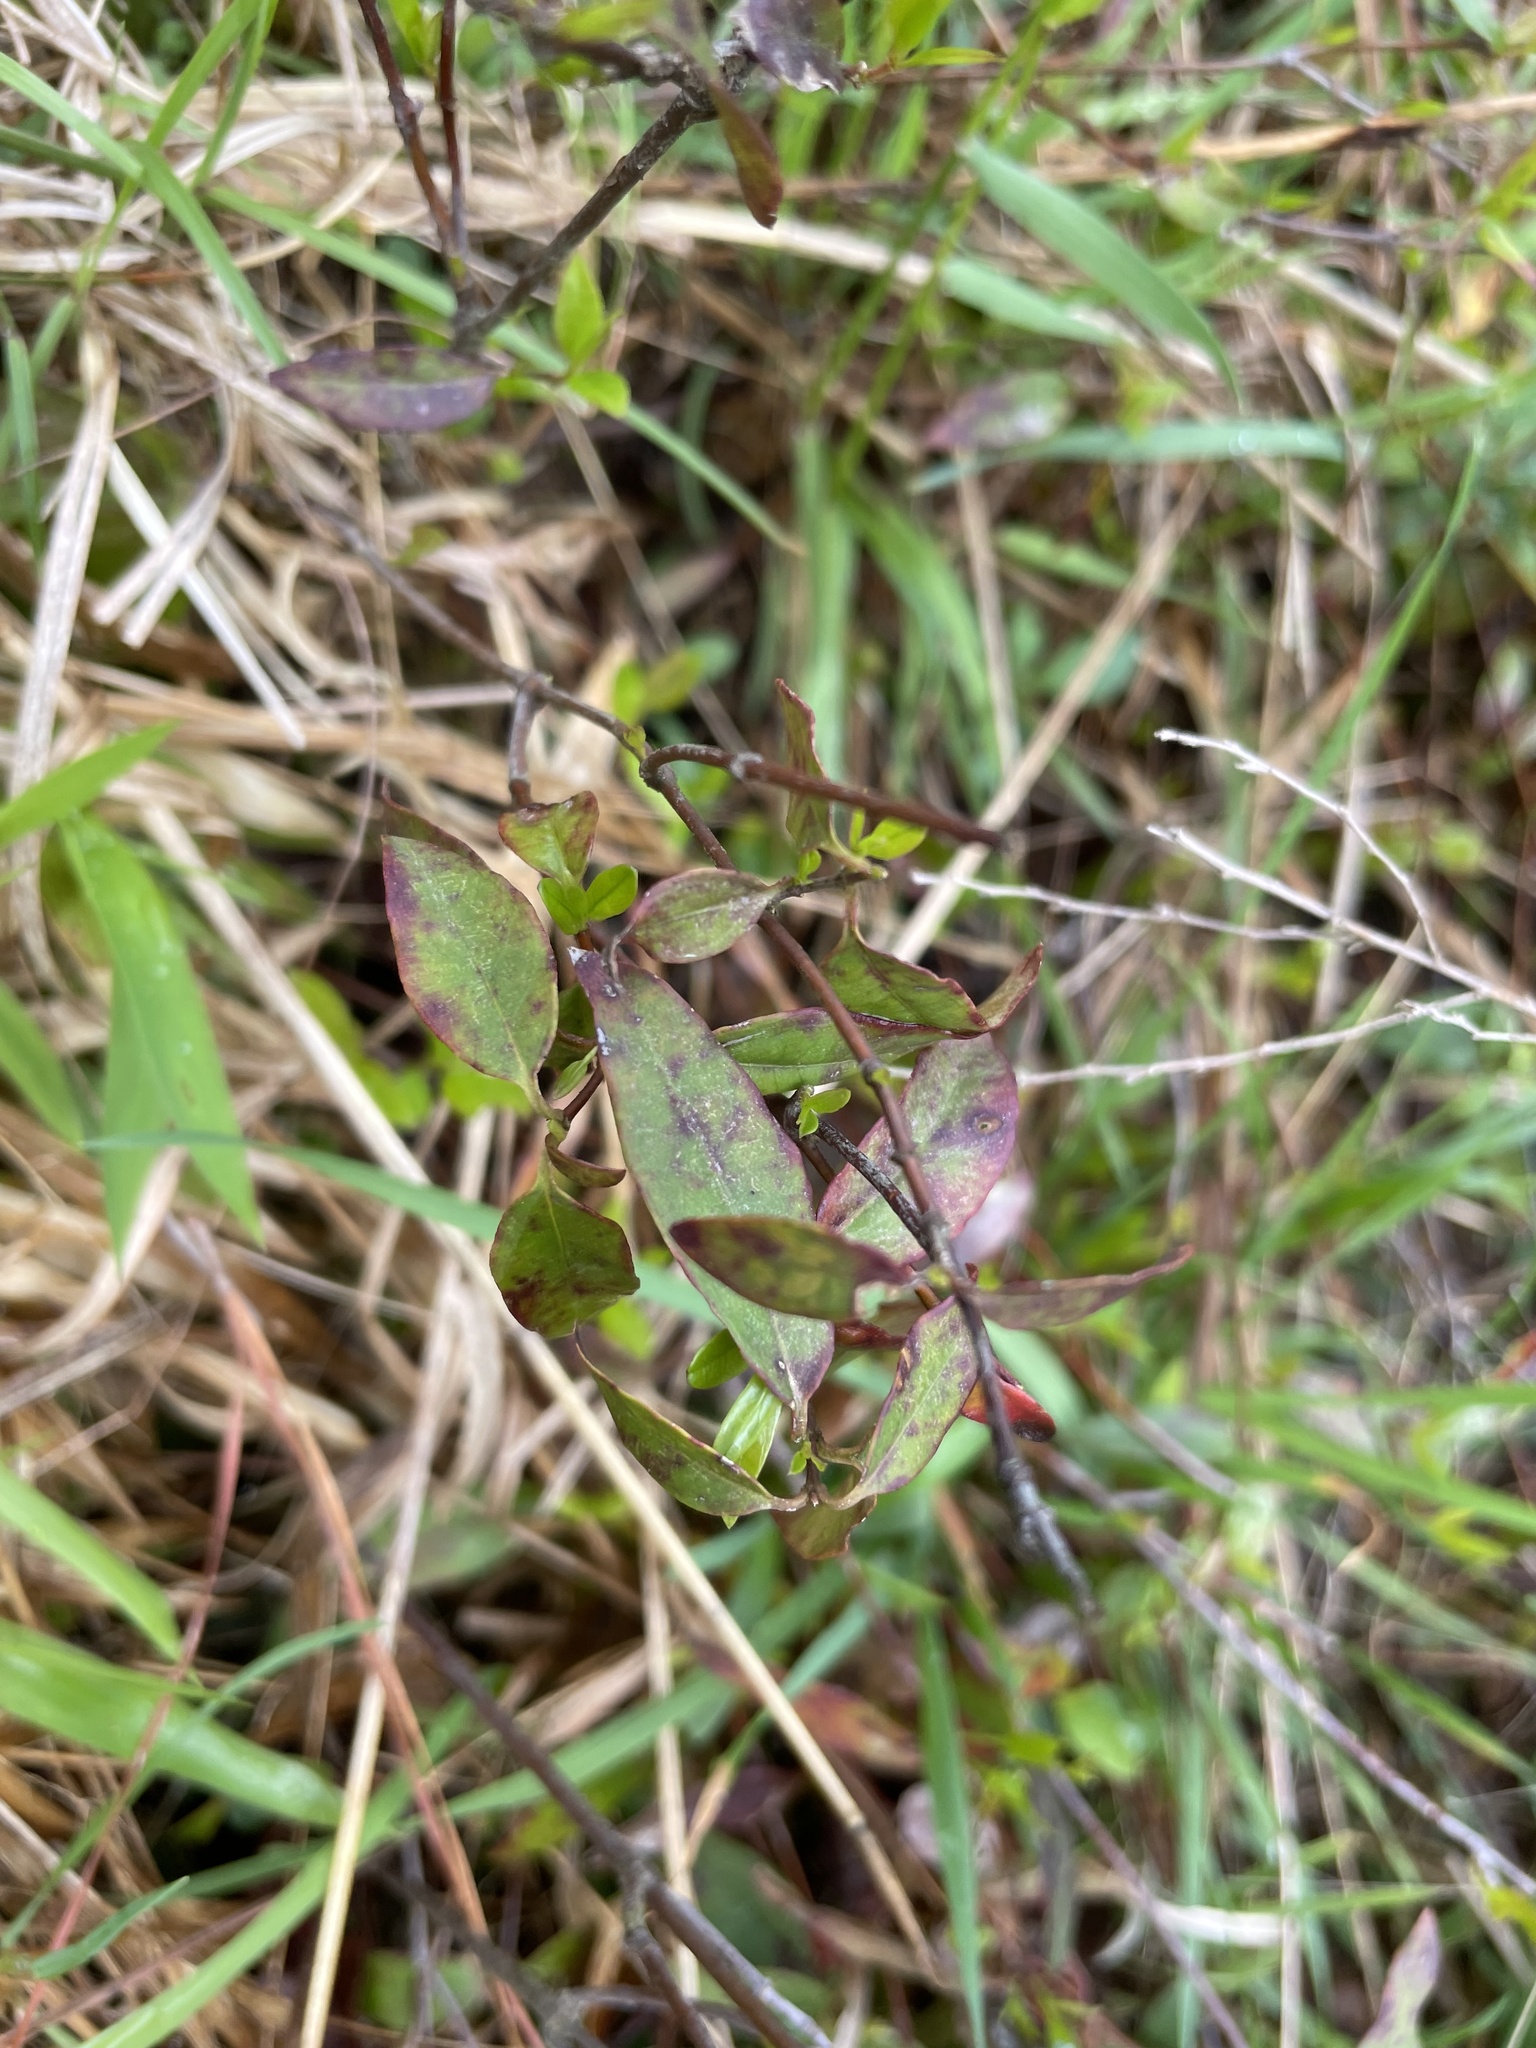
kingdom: Plantae
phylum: Tracheophyta
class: Magnoliopsida
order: Gentianales
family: Gelsemiaceae
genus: Gelsemium
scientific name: Gelsemium sempervirens
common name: Carolina-jasmine
